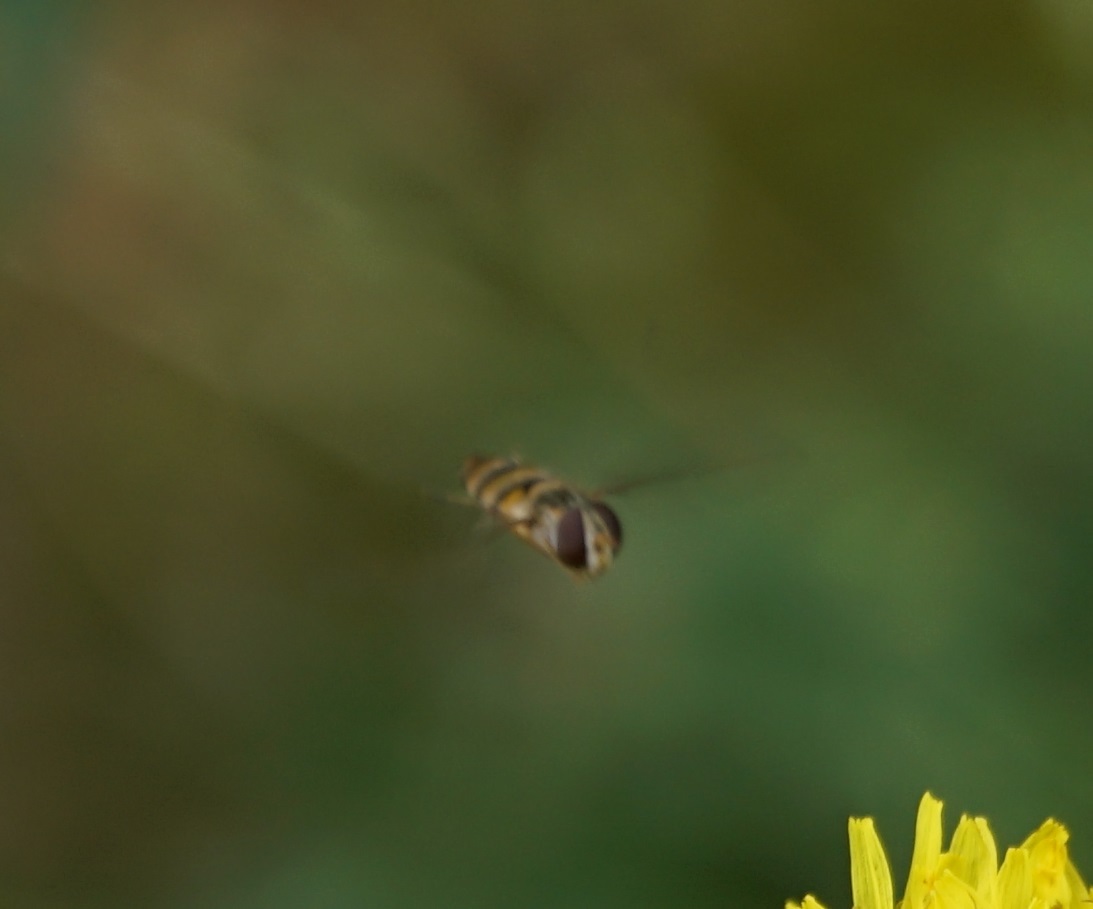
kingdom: Animalia
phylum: Arthropoda
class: Insecta
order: Diptera
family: Syrphidae
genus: Episyrphus
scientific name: Episyrphus balteatus
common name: Marmalade hoverfly
